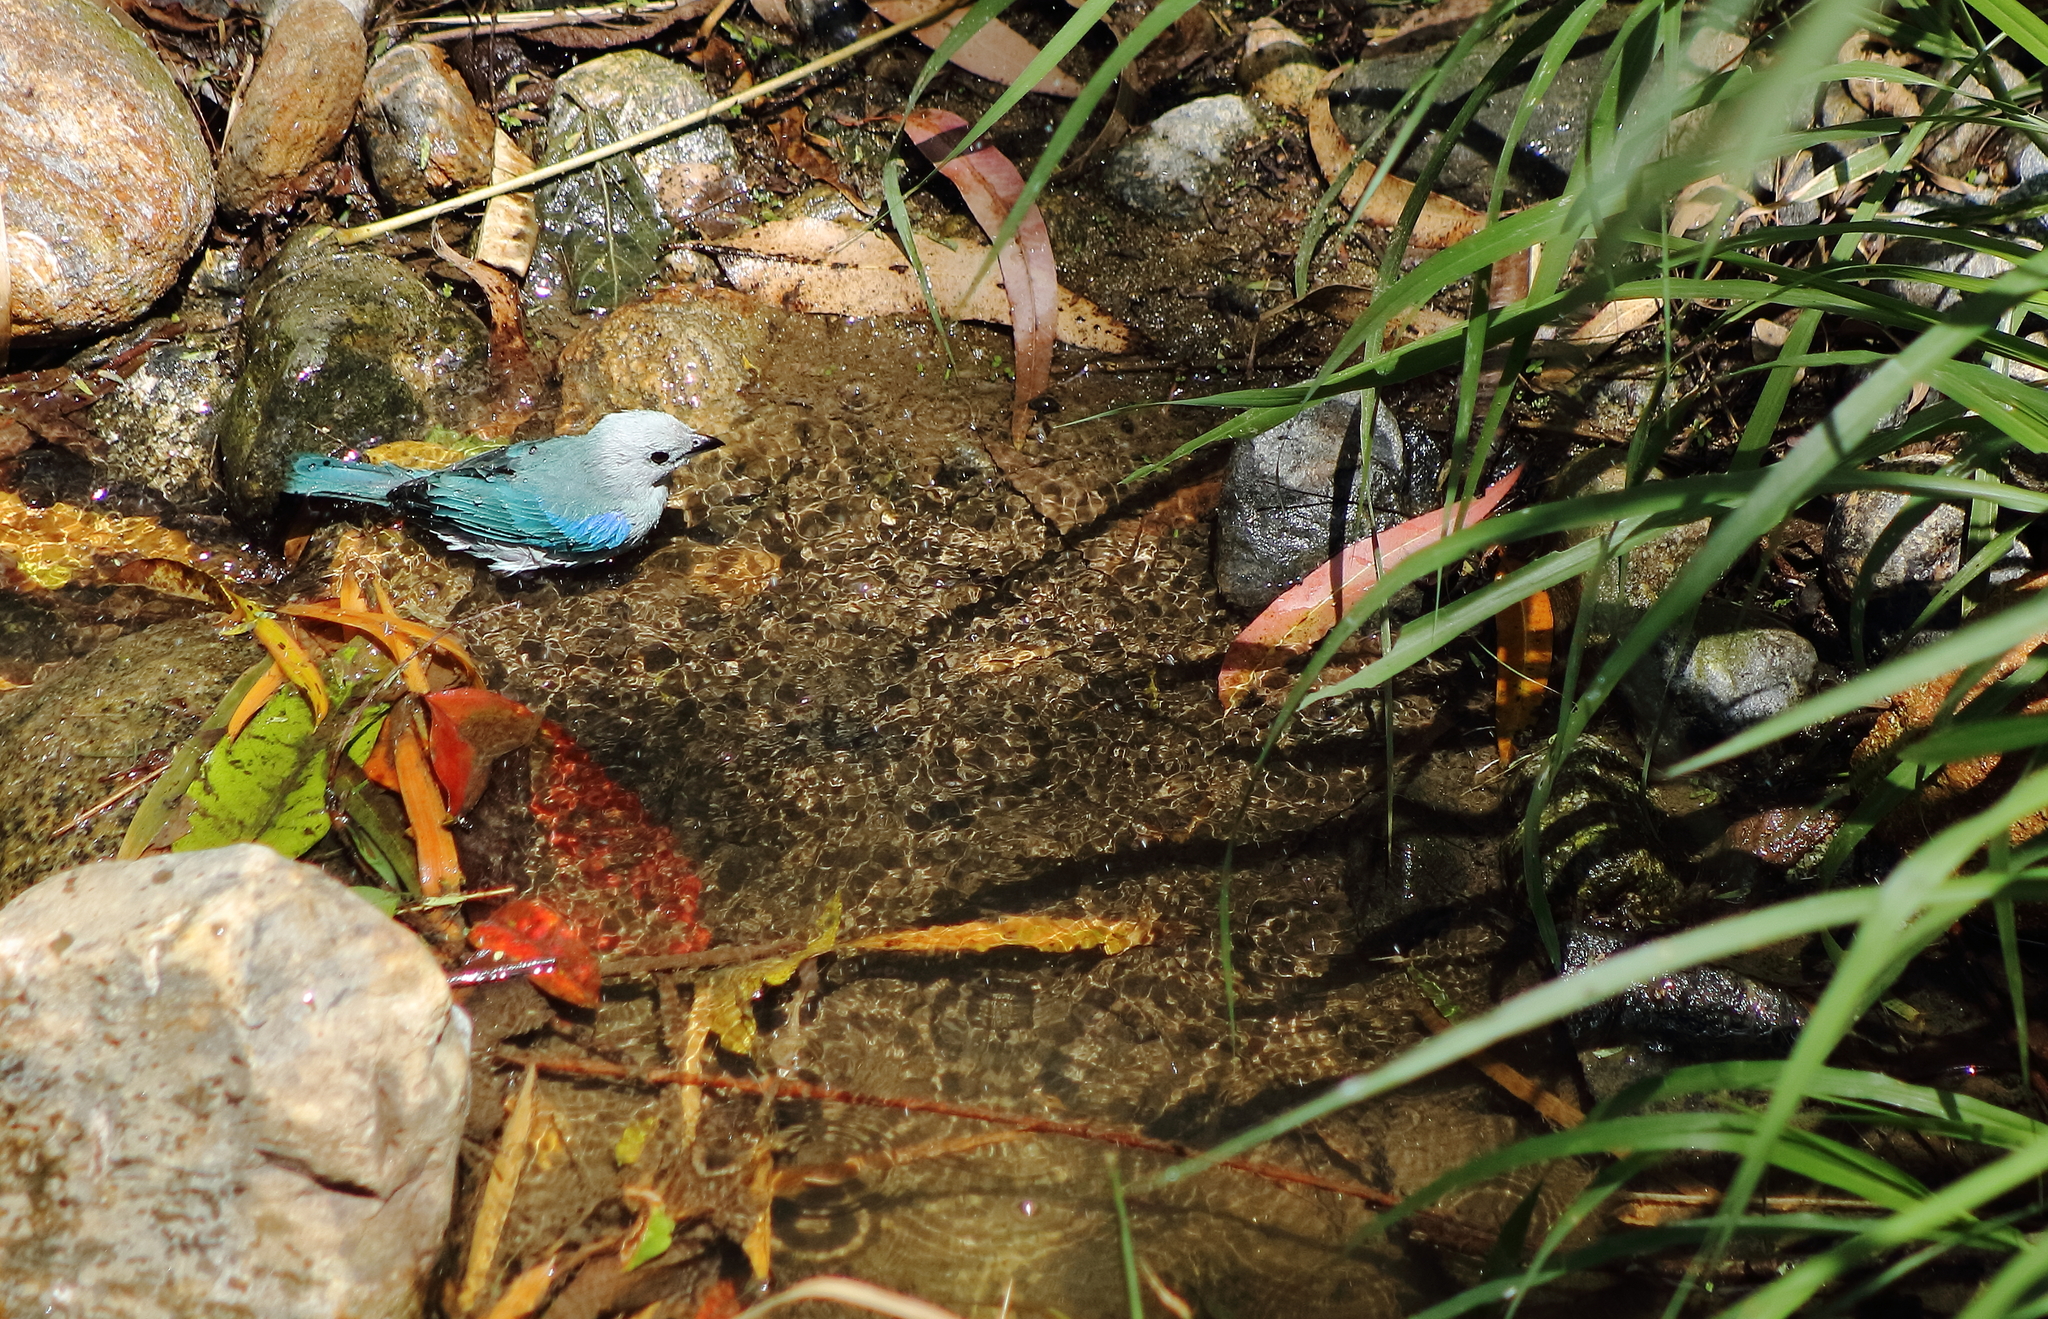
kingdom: Animalia
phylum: Chordata
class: Aves
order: Passeriformes
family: Thraupidae
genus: Thraupis
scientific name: Thraupis episcopus
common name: Blue-grey tanager
